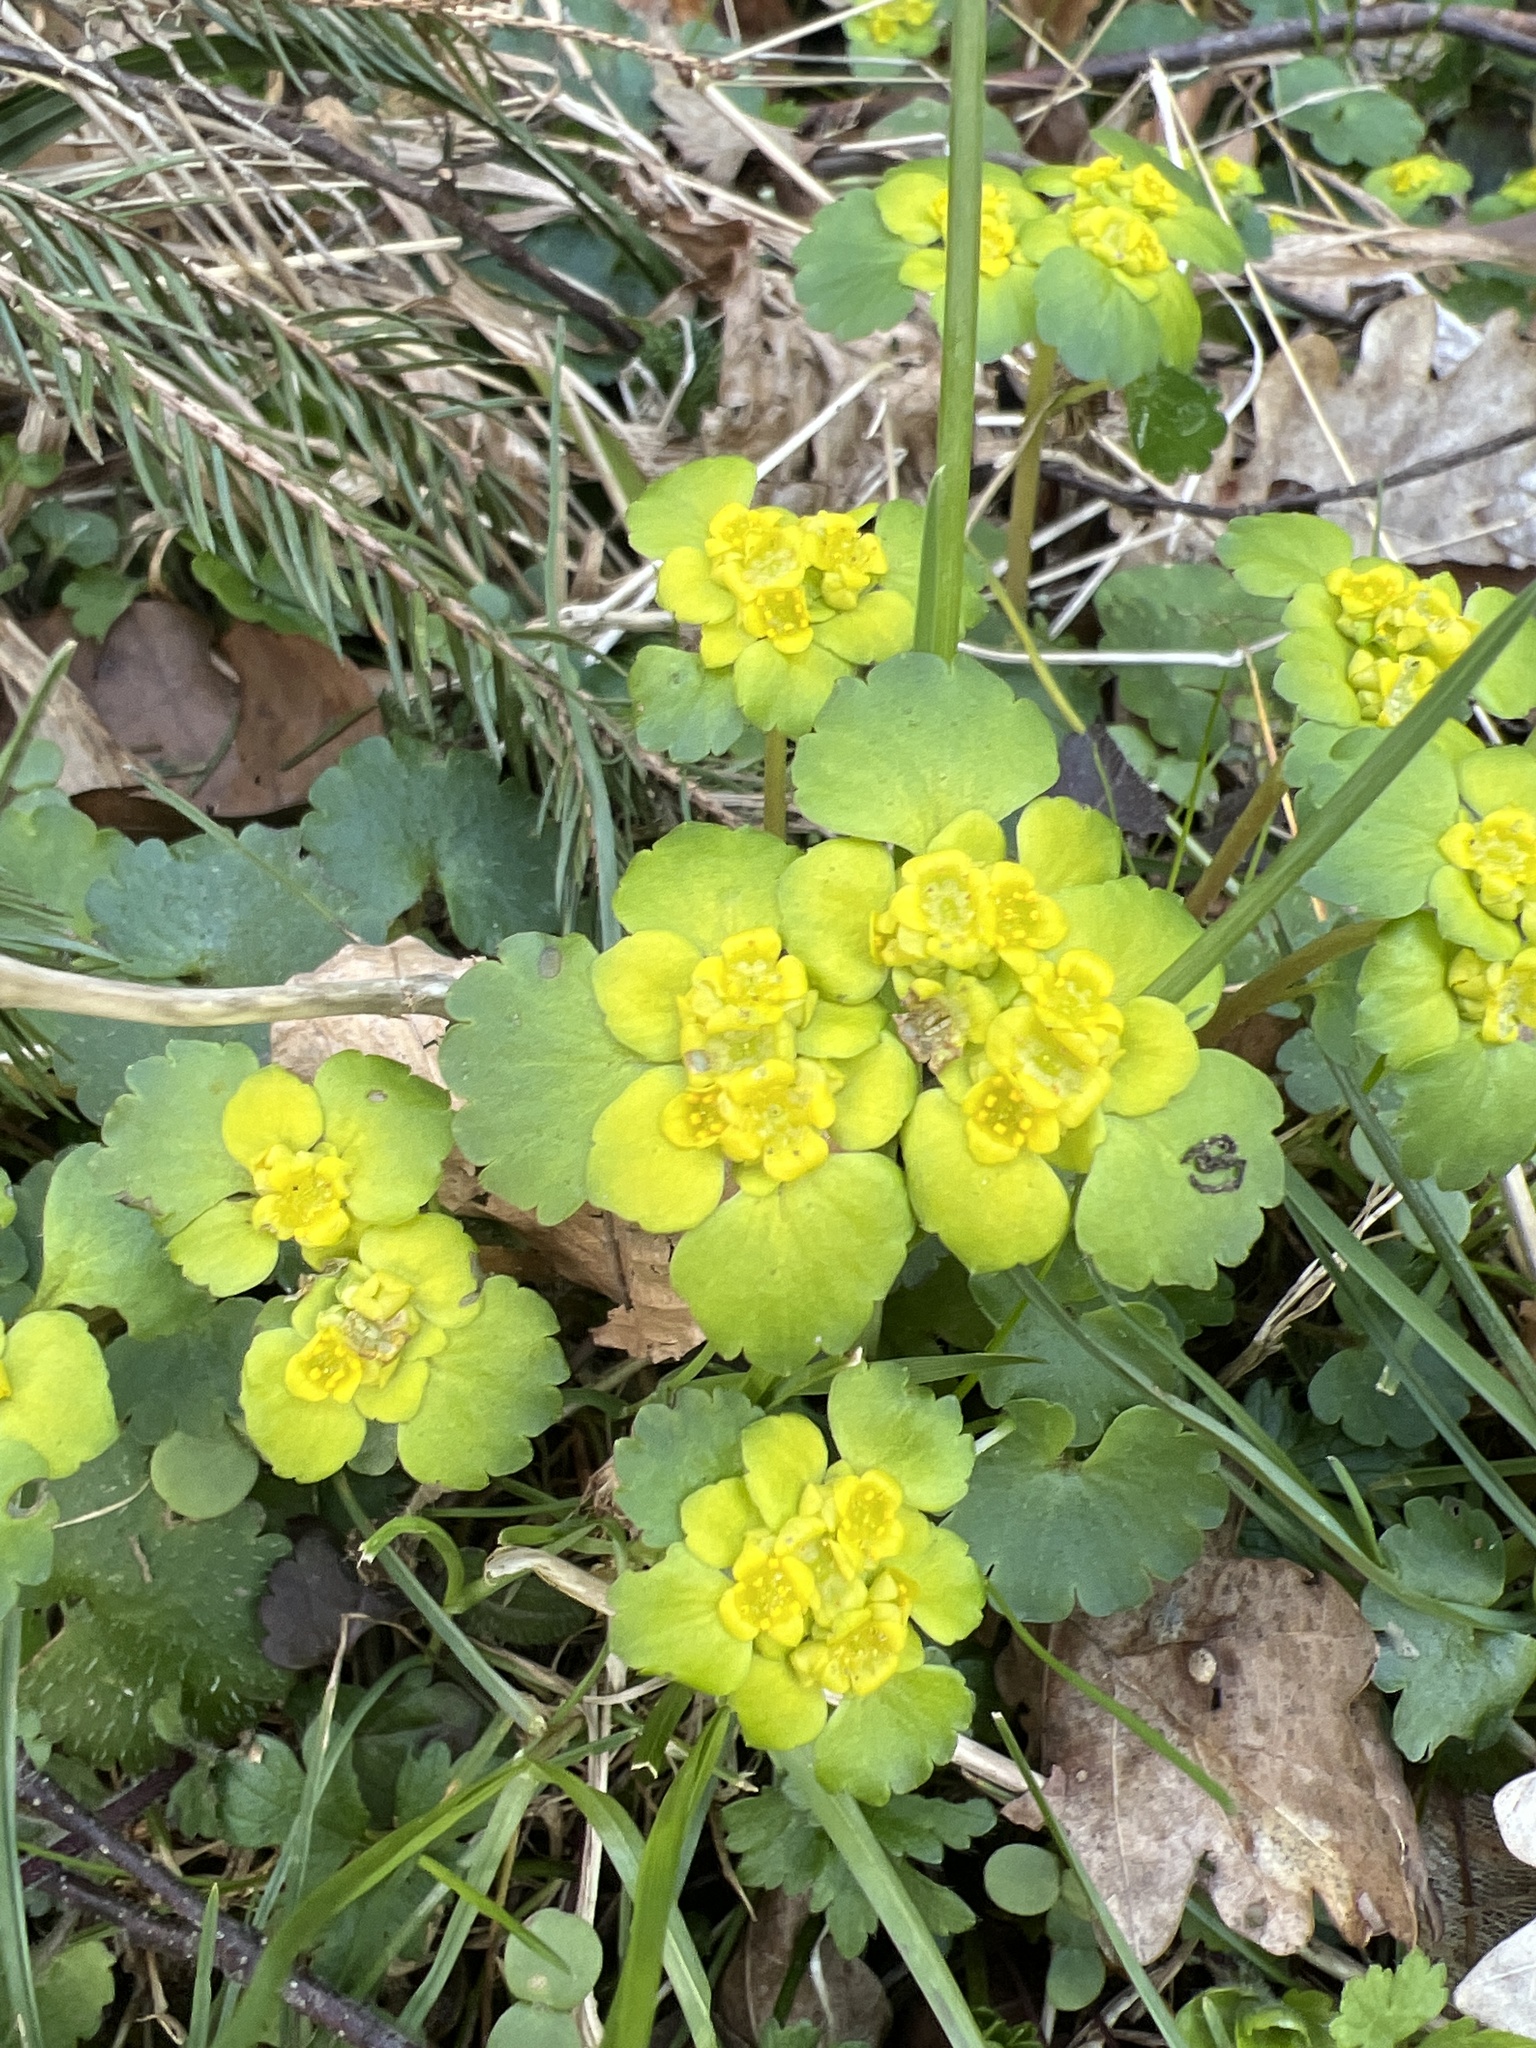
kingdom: Plantae
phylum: Tracheophyta
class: Magnoliopsida
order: Saxifragales
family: Saxifragaceae
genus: Chrysosplenium
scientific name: Chrysosplenium alternifolium
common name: Alternate-leaved golden-saxifrage
